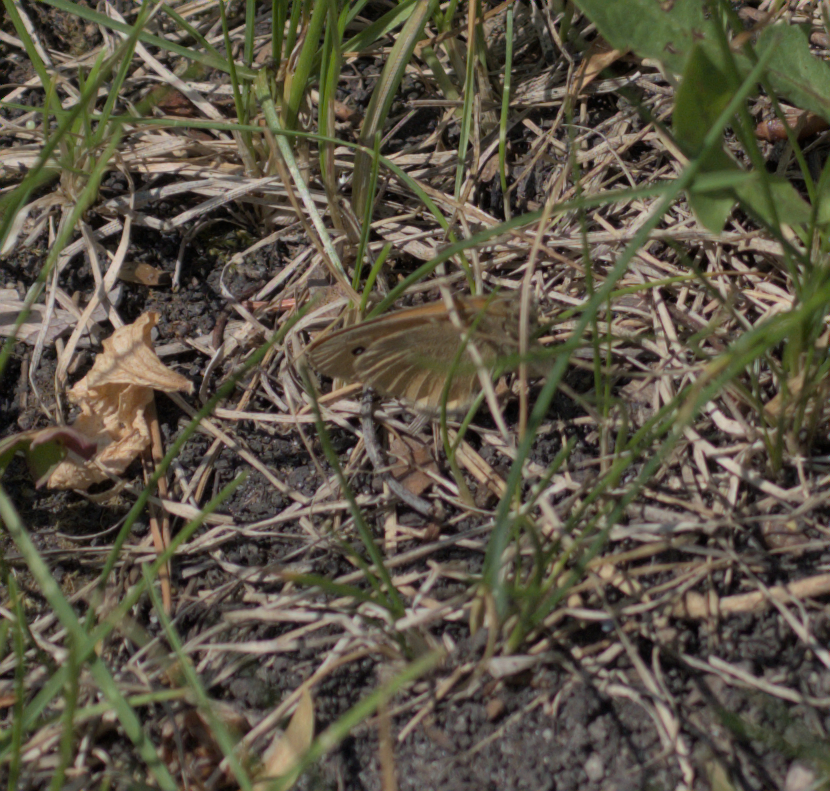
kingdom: Animalia
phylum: Arthropoda
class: Insecta
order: Lepidoptera
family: Nymphalidae
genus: Coenonympha
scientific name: Coenonympha california
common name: Common ringlet
